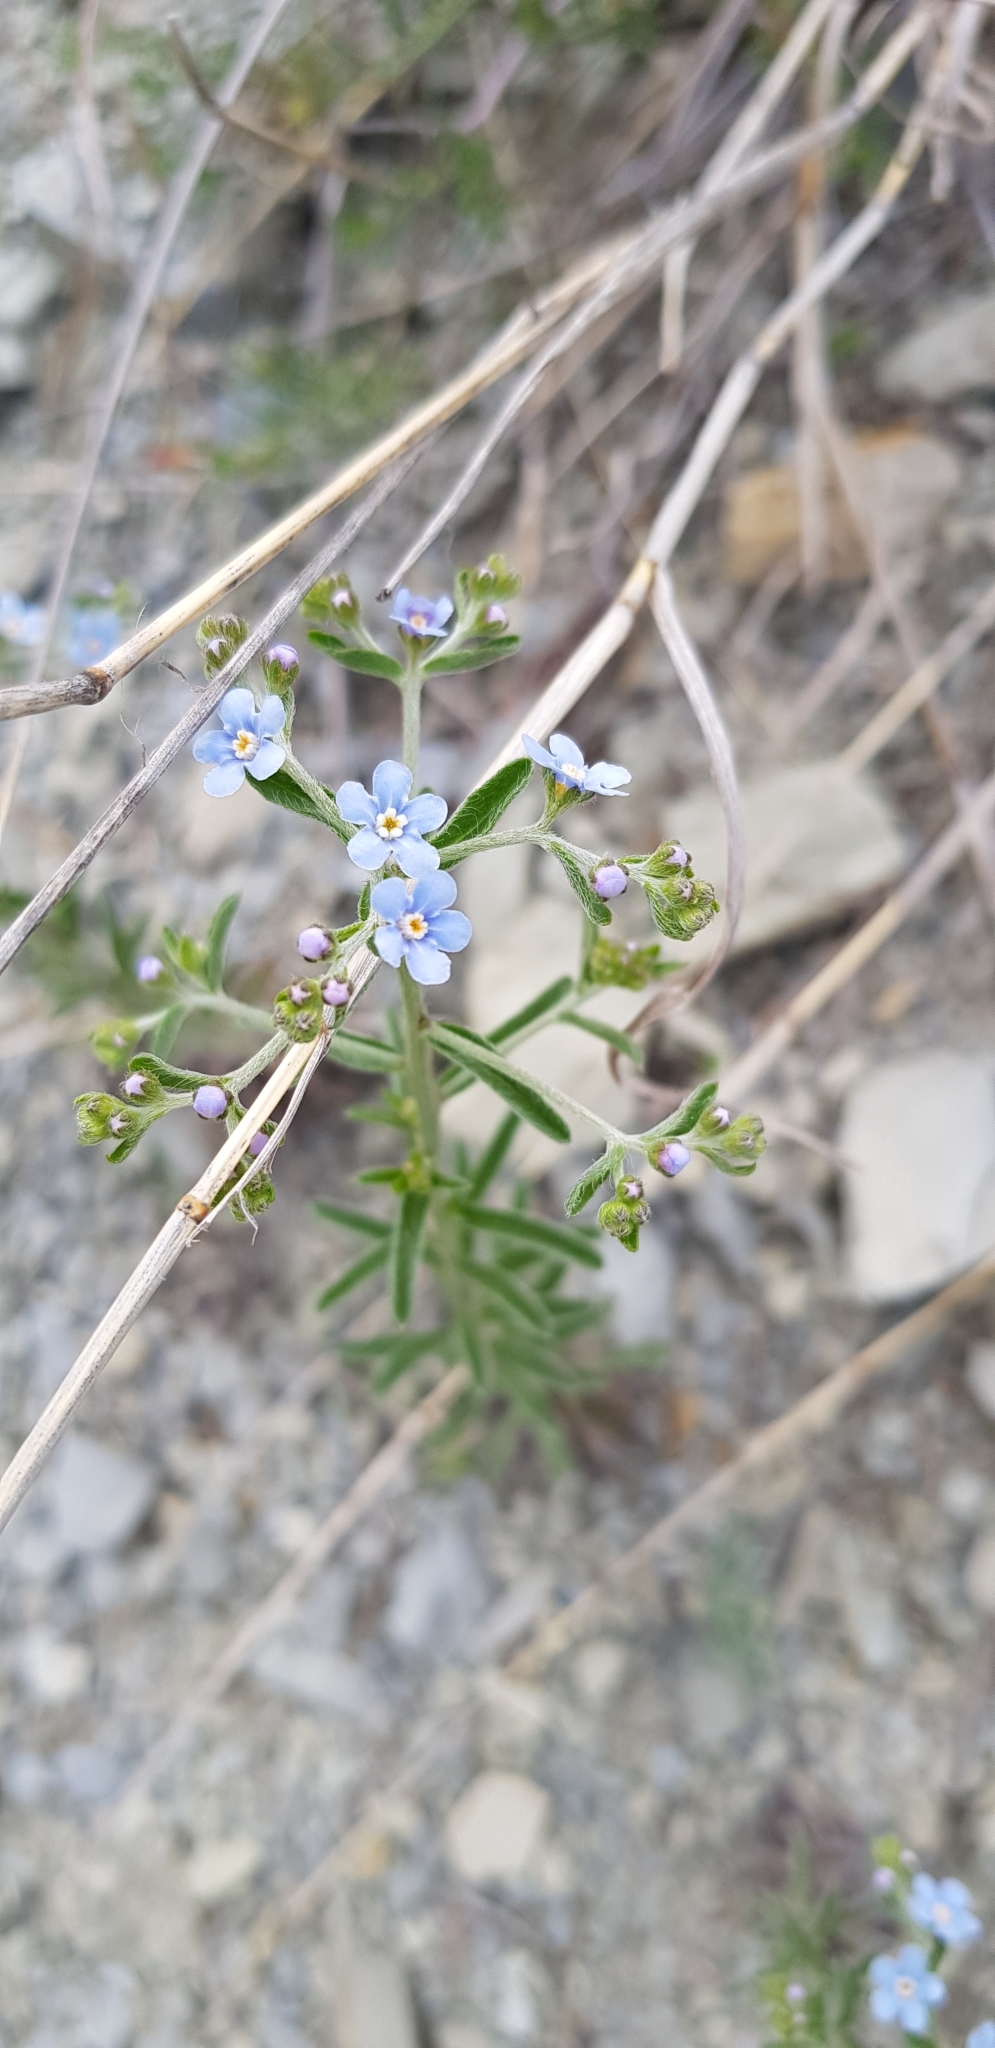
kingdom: Plantae
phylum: Tracheophyta
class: Magnoliopsida
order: Boraginales
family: Boraginaceae
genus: Lappula
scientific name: Lappula barbata
